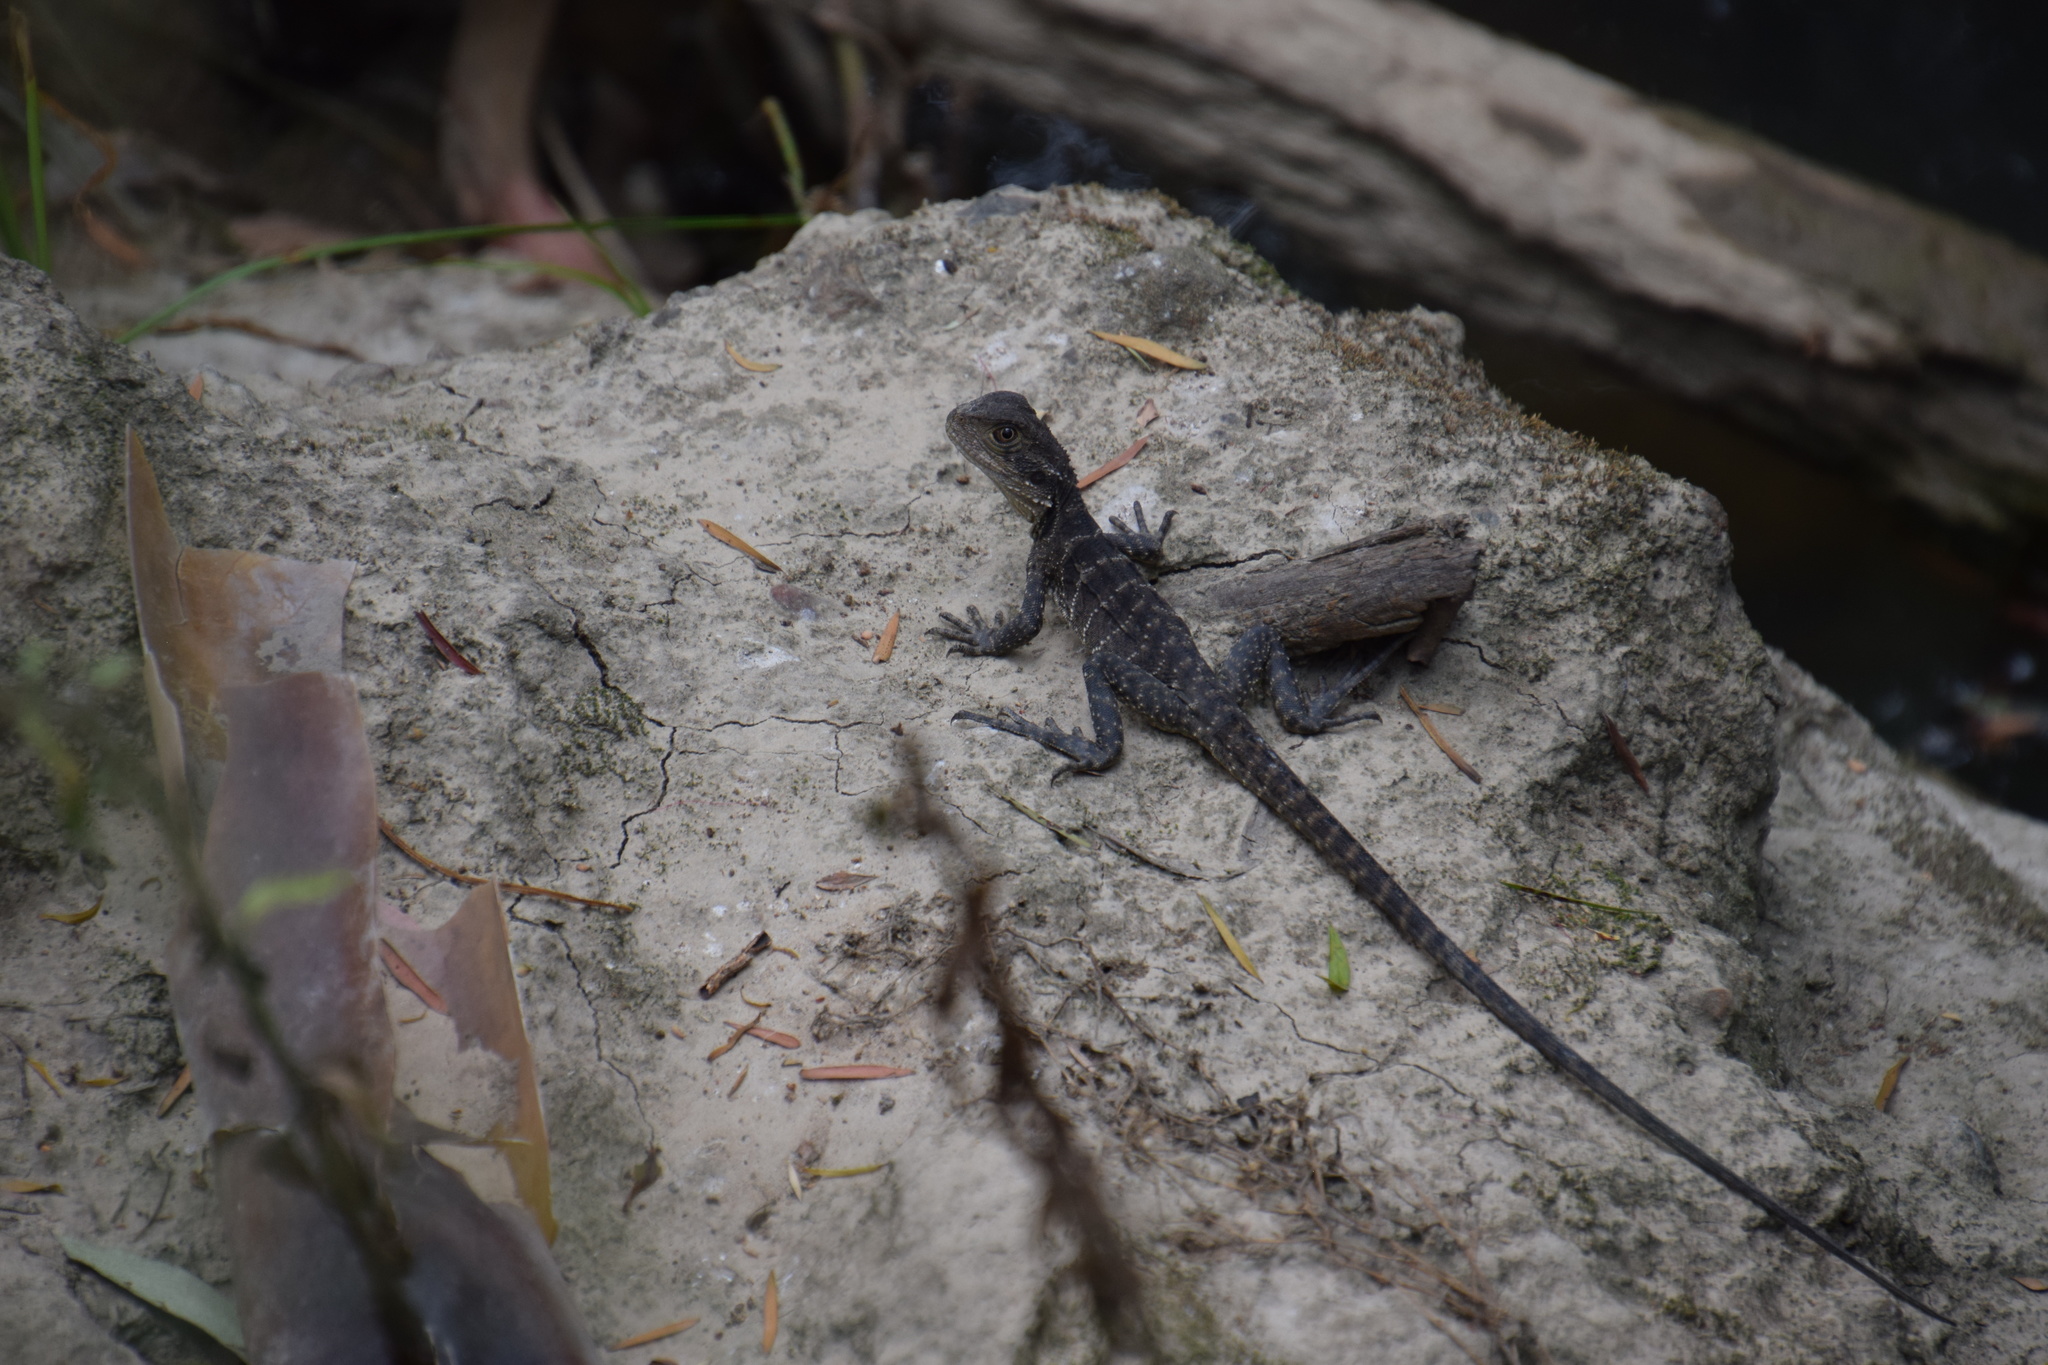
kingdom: Animalia
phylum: Chordata
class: Squamata
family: Agamidae
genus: Intellagama
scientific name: Intellagama lesueurii
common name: Eastern water dragon
